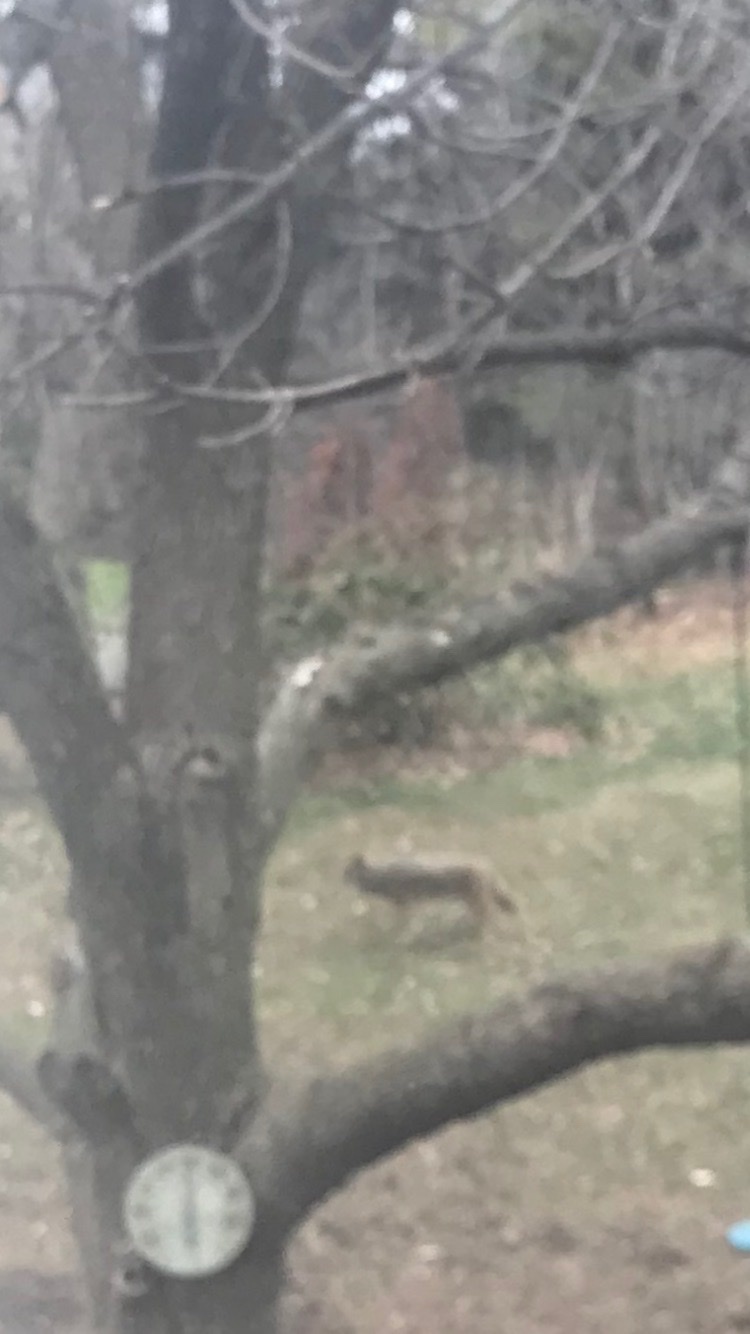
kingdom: Animalia
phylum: Chordata
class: Mammalia
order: Carnivora
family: Canidae
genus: Canis
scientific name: Canis latrans
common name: Coyote
